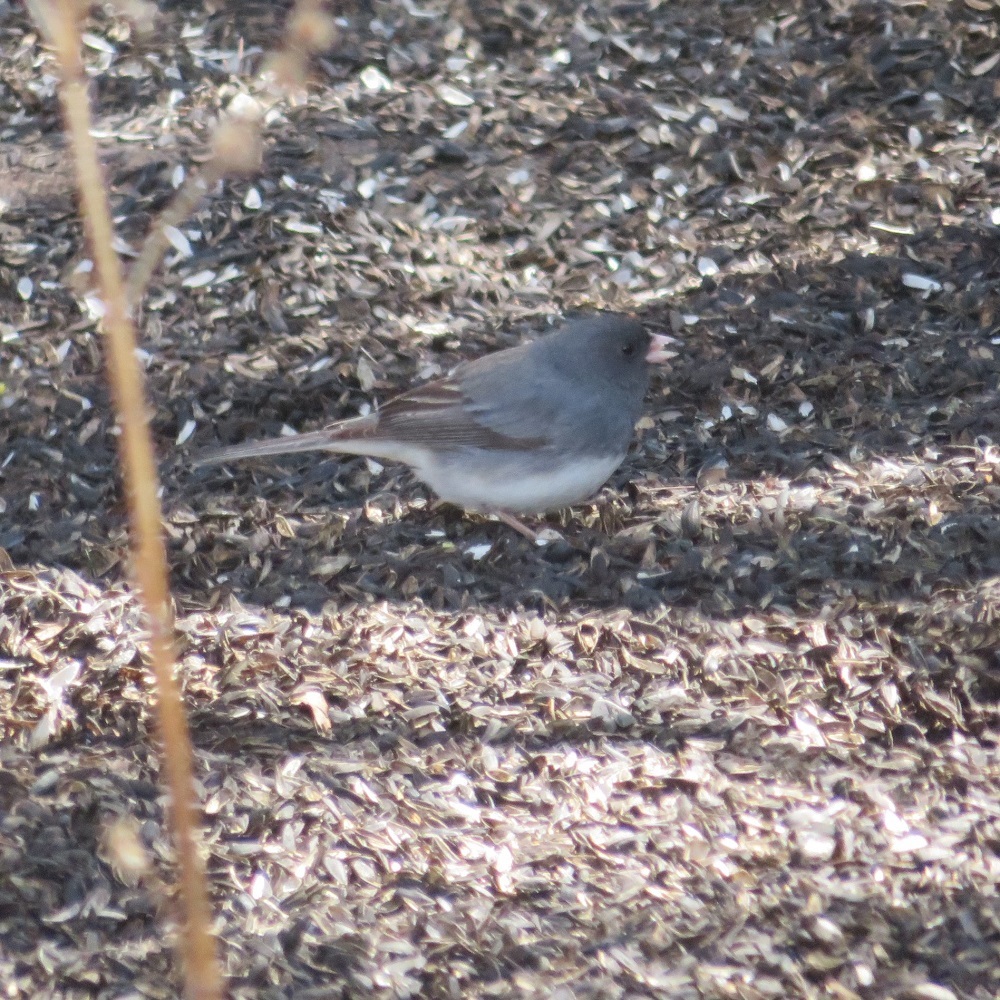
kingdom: Animalia
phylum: Chordata
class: Aves
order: Passeriformes
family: Passerellidae
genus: Junco
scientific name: Junco hyemalis
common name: Dark-eyed junco
